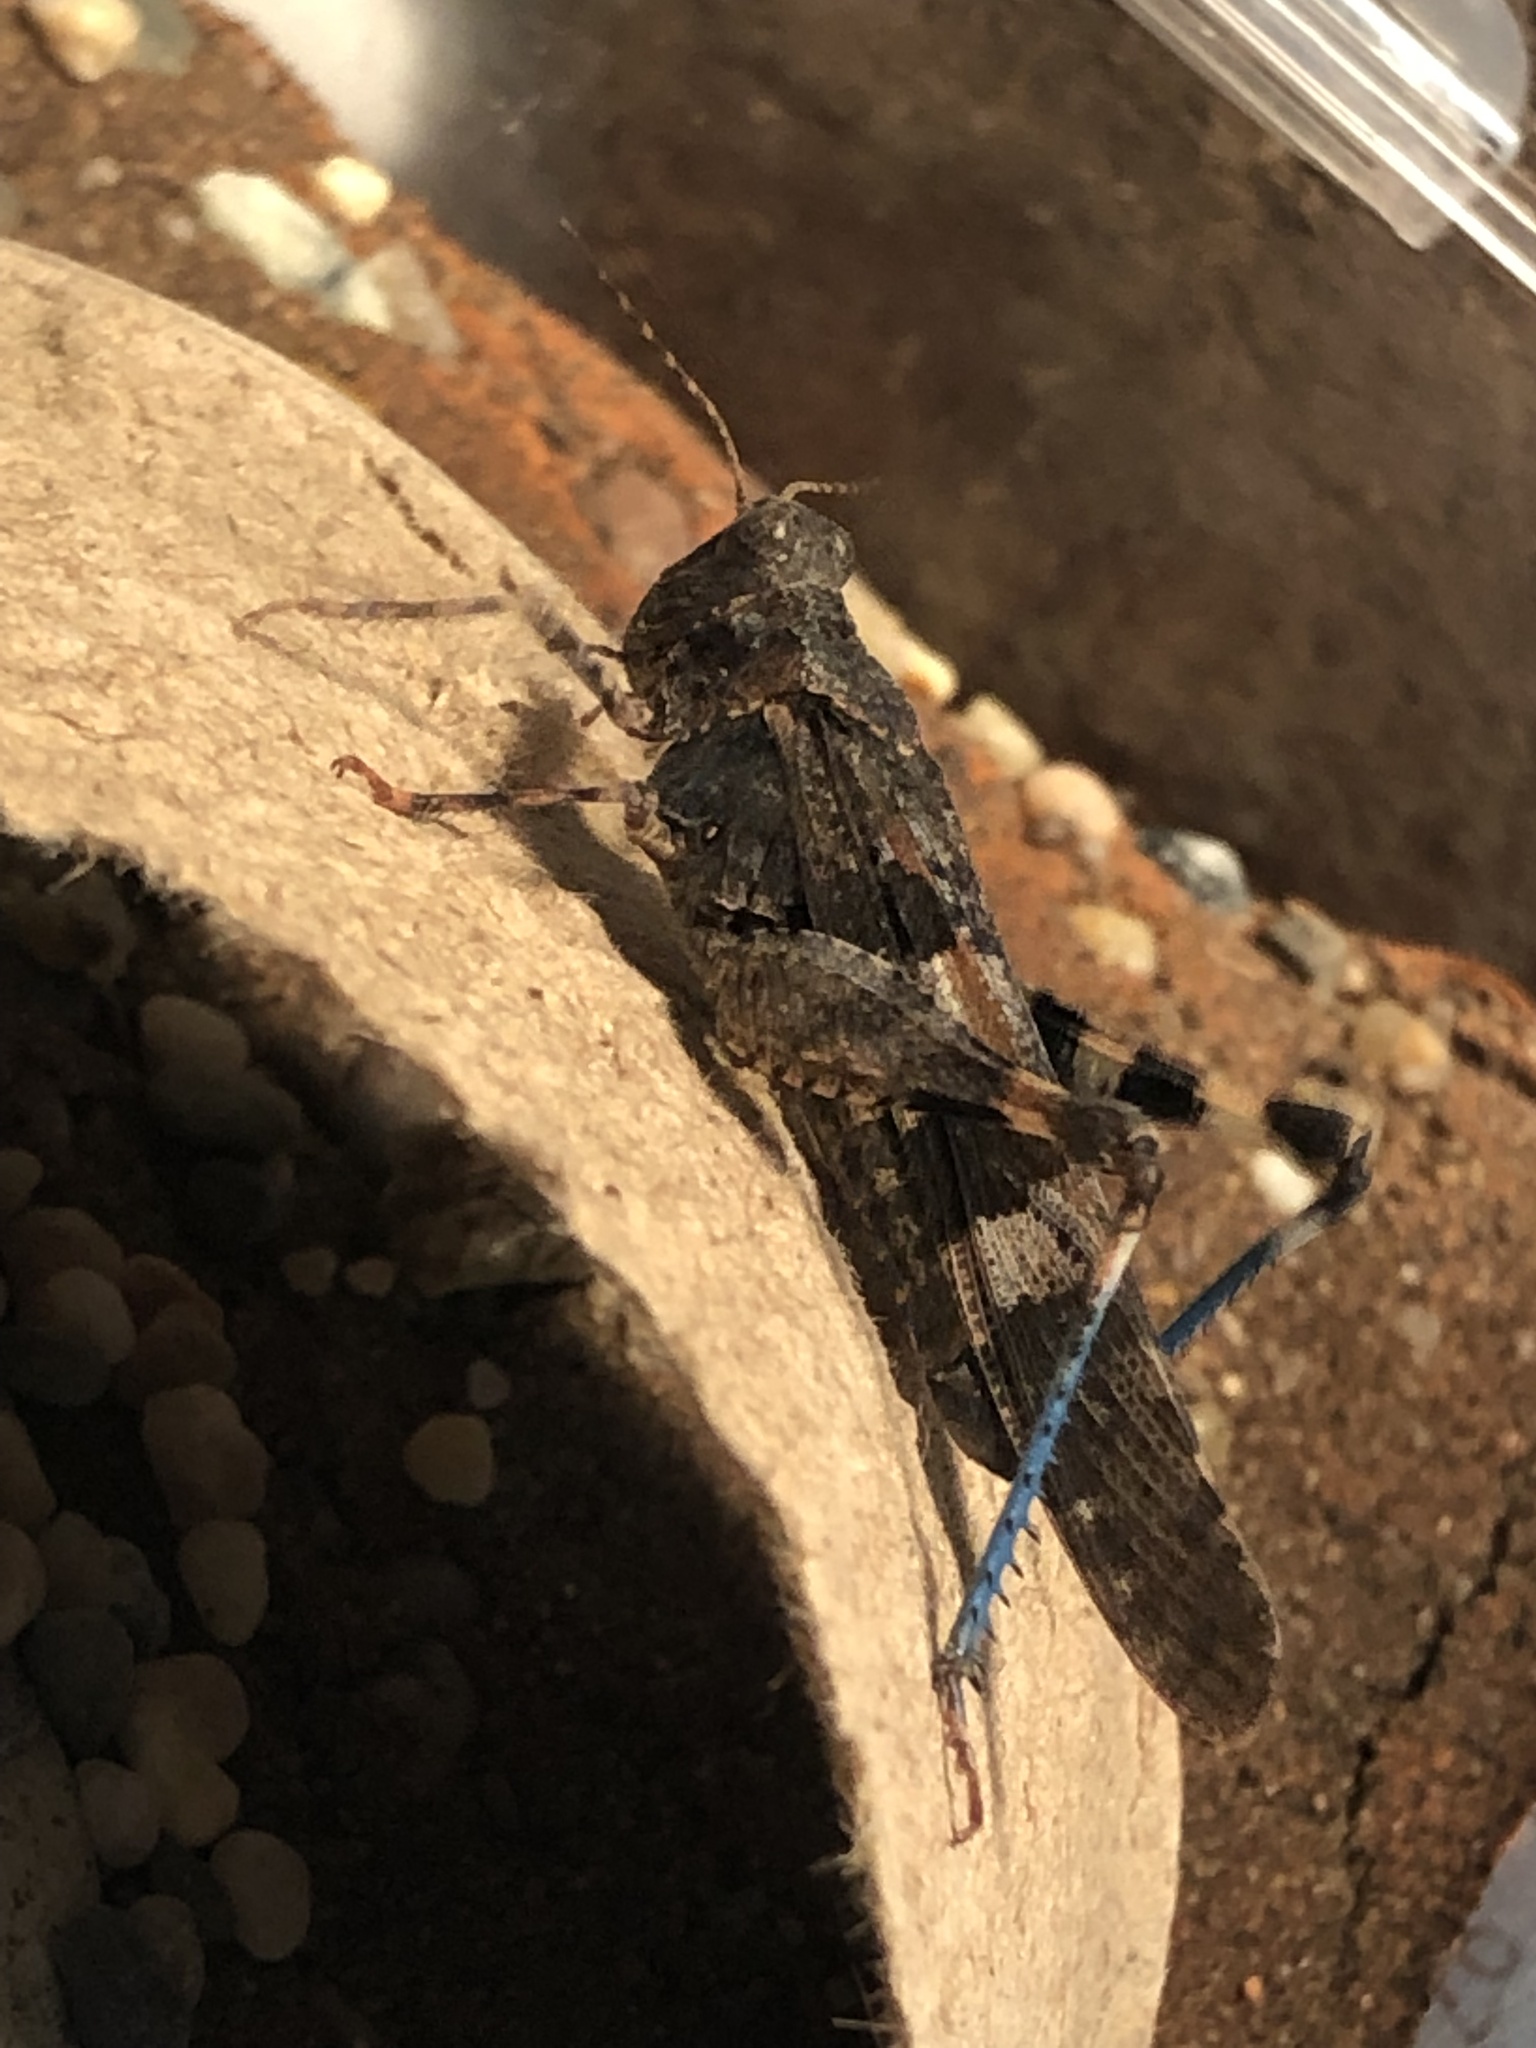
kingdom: Animalia
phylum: Arthropoda
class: Insecta
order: Orthoptera
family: Acrididae
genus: Trimerotropis
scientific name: Trimerotropis fontana
